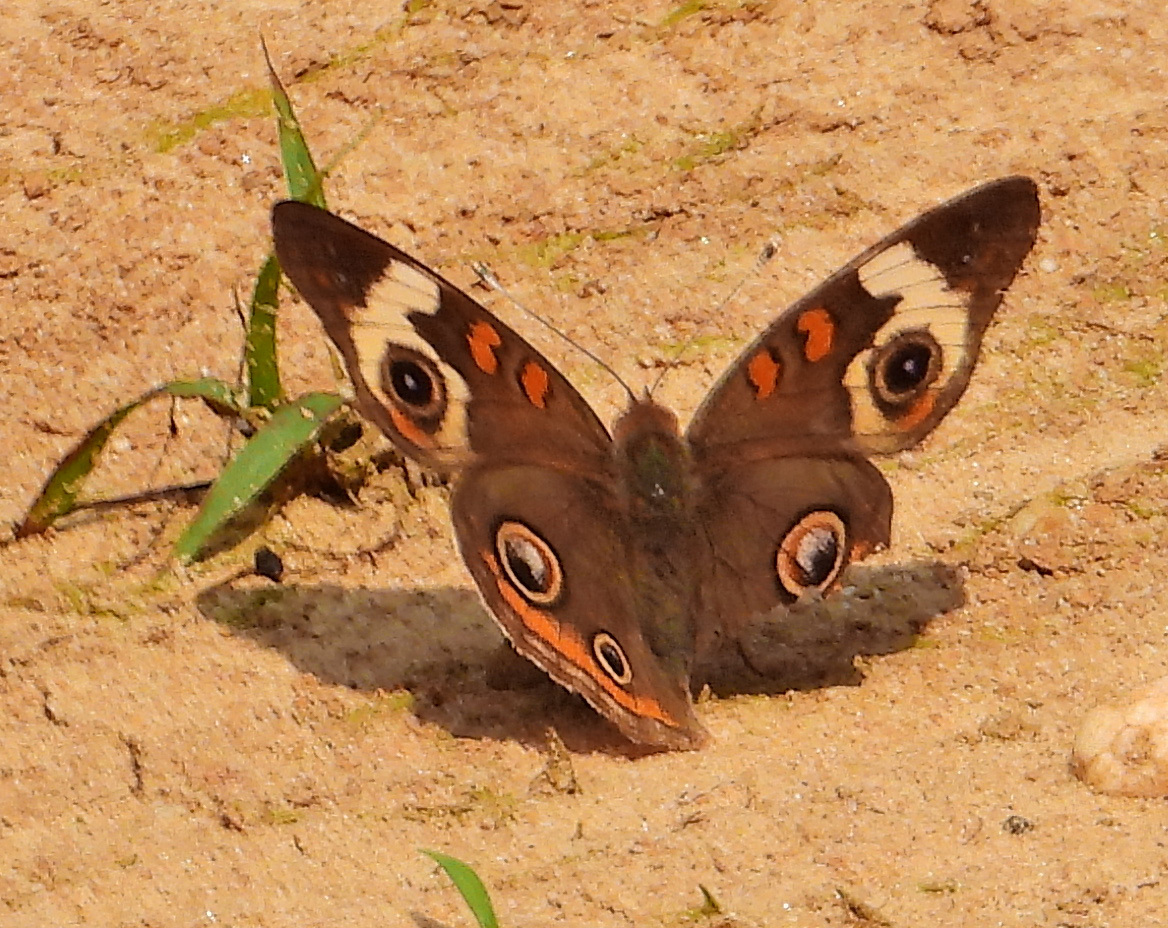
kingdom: Animalia
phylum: Arthropoda
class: Insecta
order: Lepidoptera
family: Nymphalidae
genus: Junonia
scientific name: Junonia coenia
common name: Common buckeye
